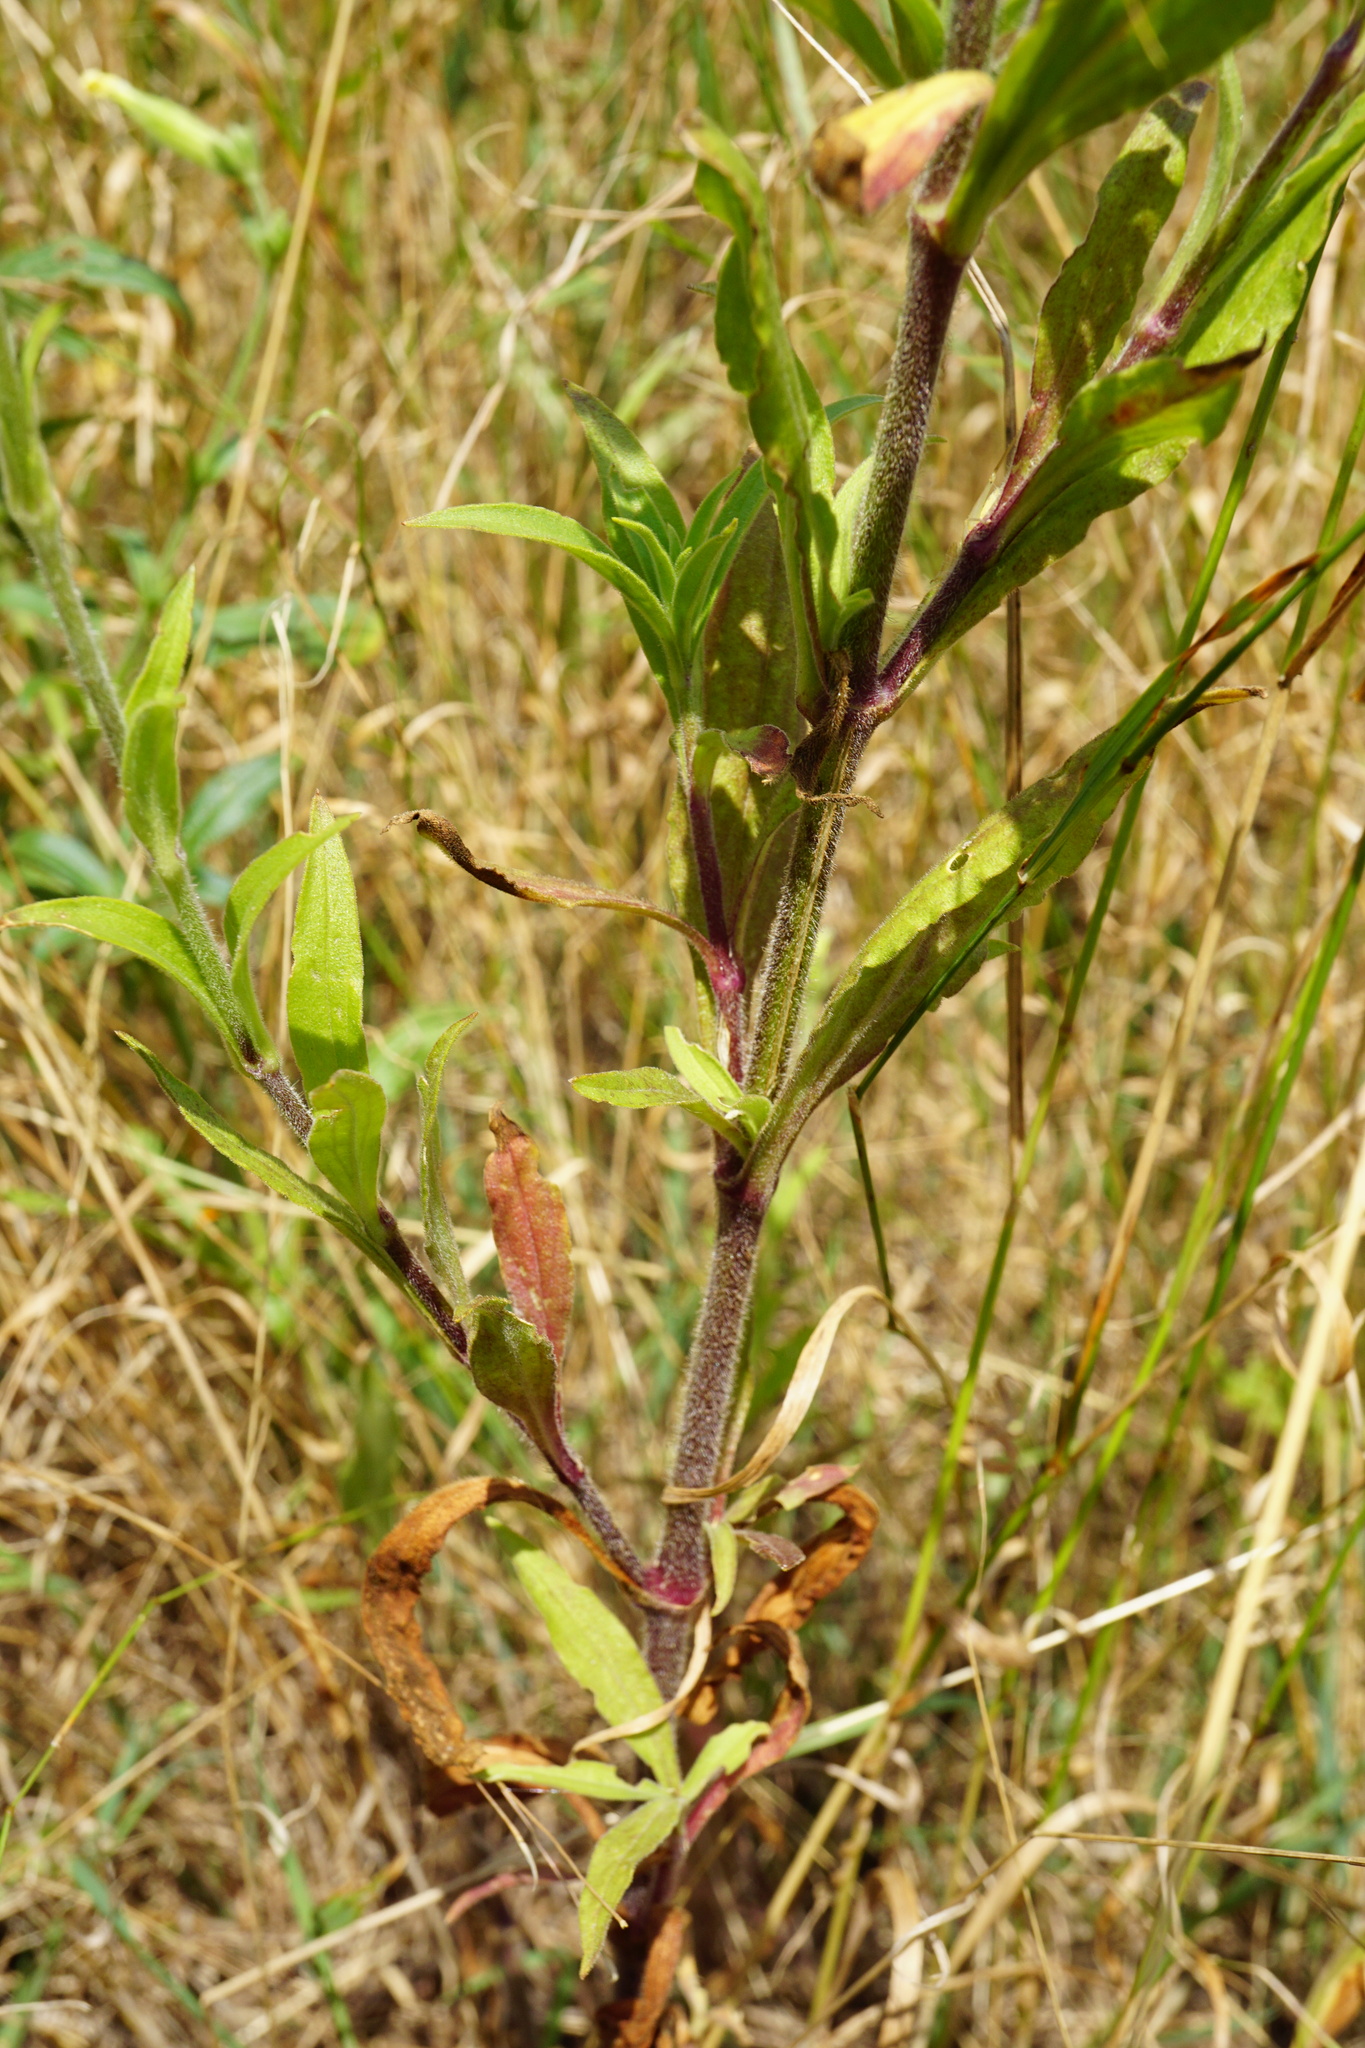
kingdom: Plantae
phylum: Tracheophyta
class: Magnoliopsida
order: Caryophyllales
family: Caryophyllaceae
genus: Silene
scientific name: Silene latifolia
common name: White campion
